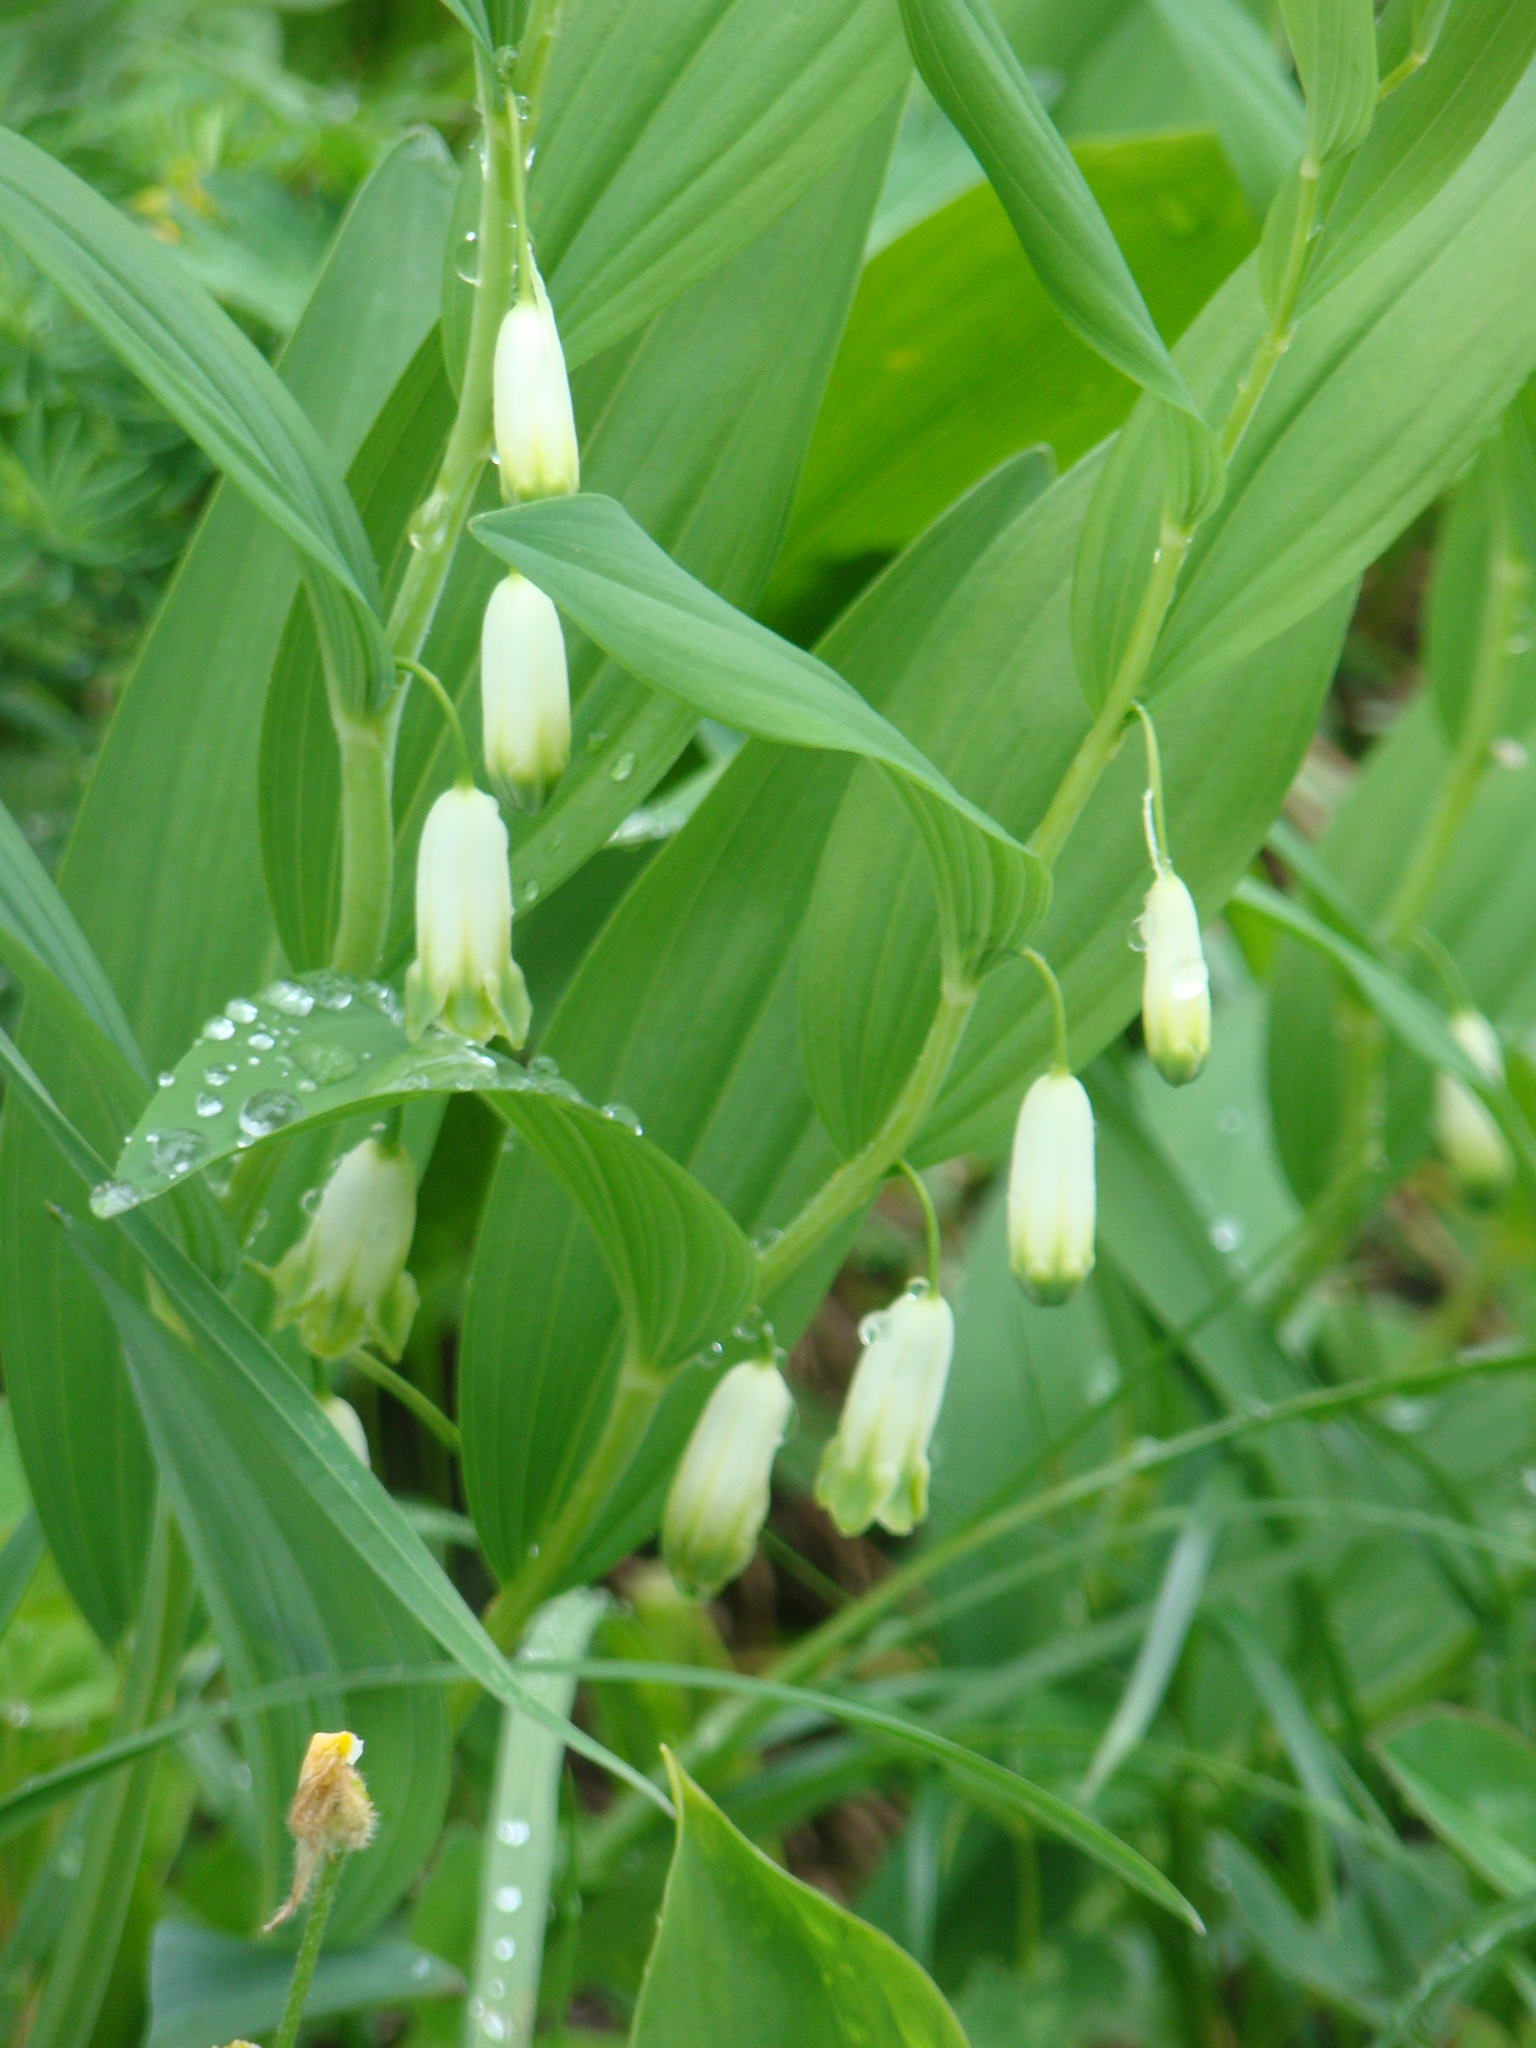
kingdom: Plantae
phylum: Tracheophyta
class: Liliopsida
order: Asparagales
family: Asparagaceae
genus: Polygonatum
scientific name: Polygonatum odoratum
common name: Angular solomon's-seal
